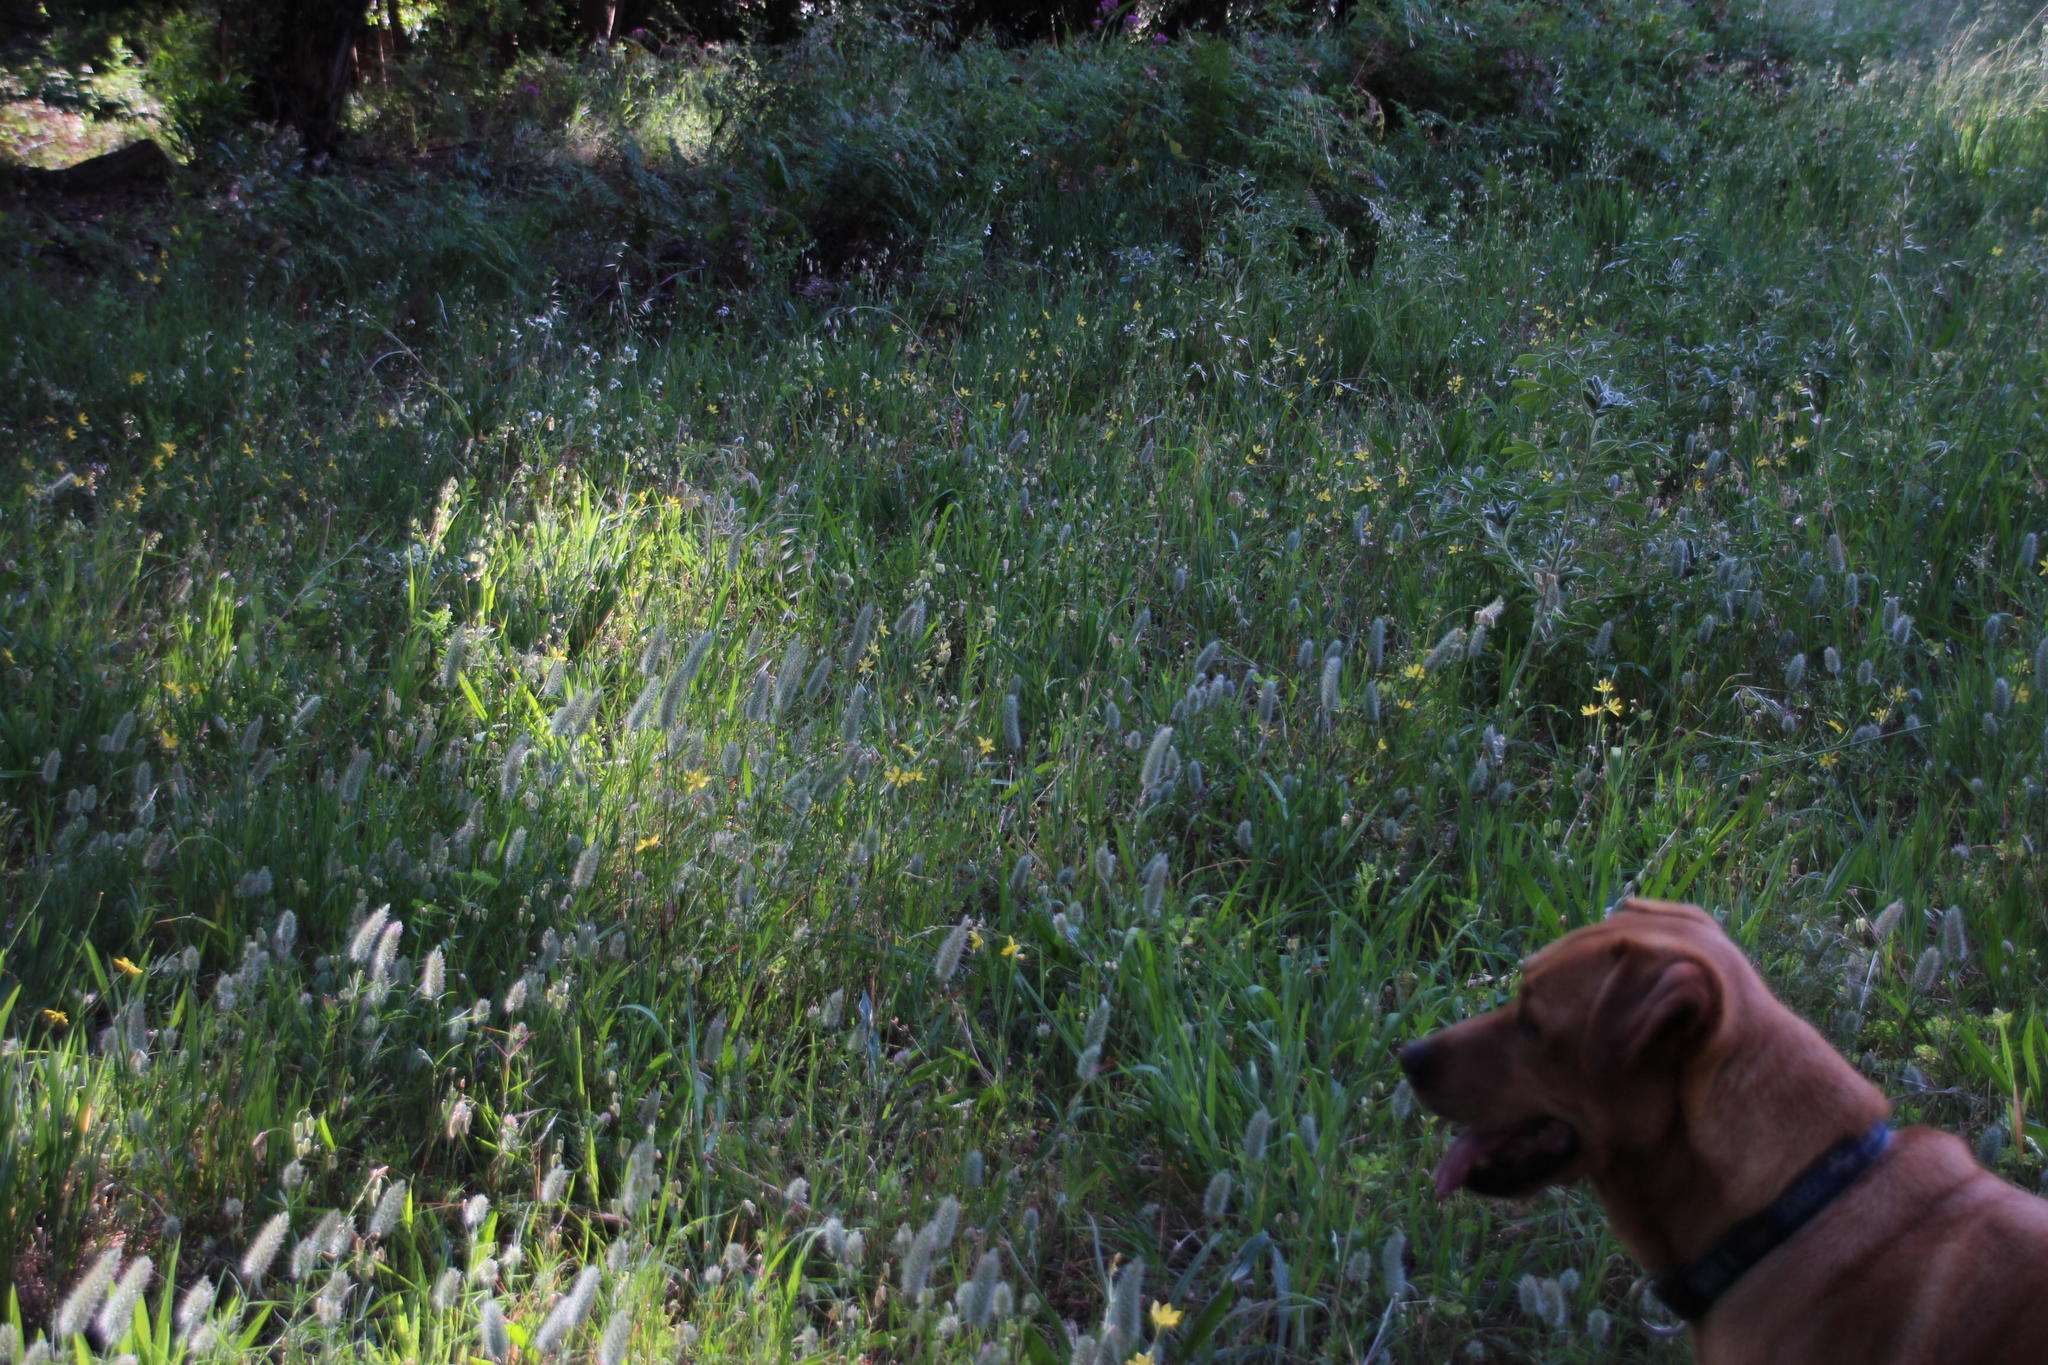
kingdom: Plantae
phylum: Tracheophyta
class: Liliopsida
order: Asparagales
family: Iridaceae
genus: Moraea
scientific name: Moraea lewisiae
